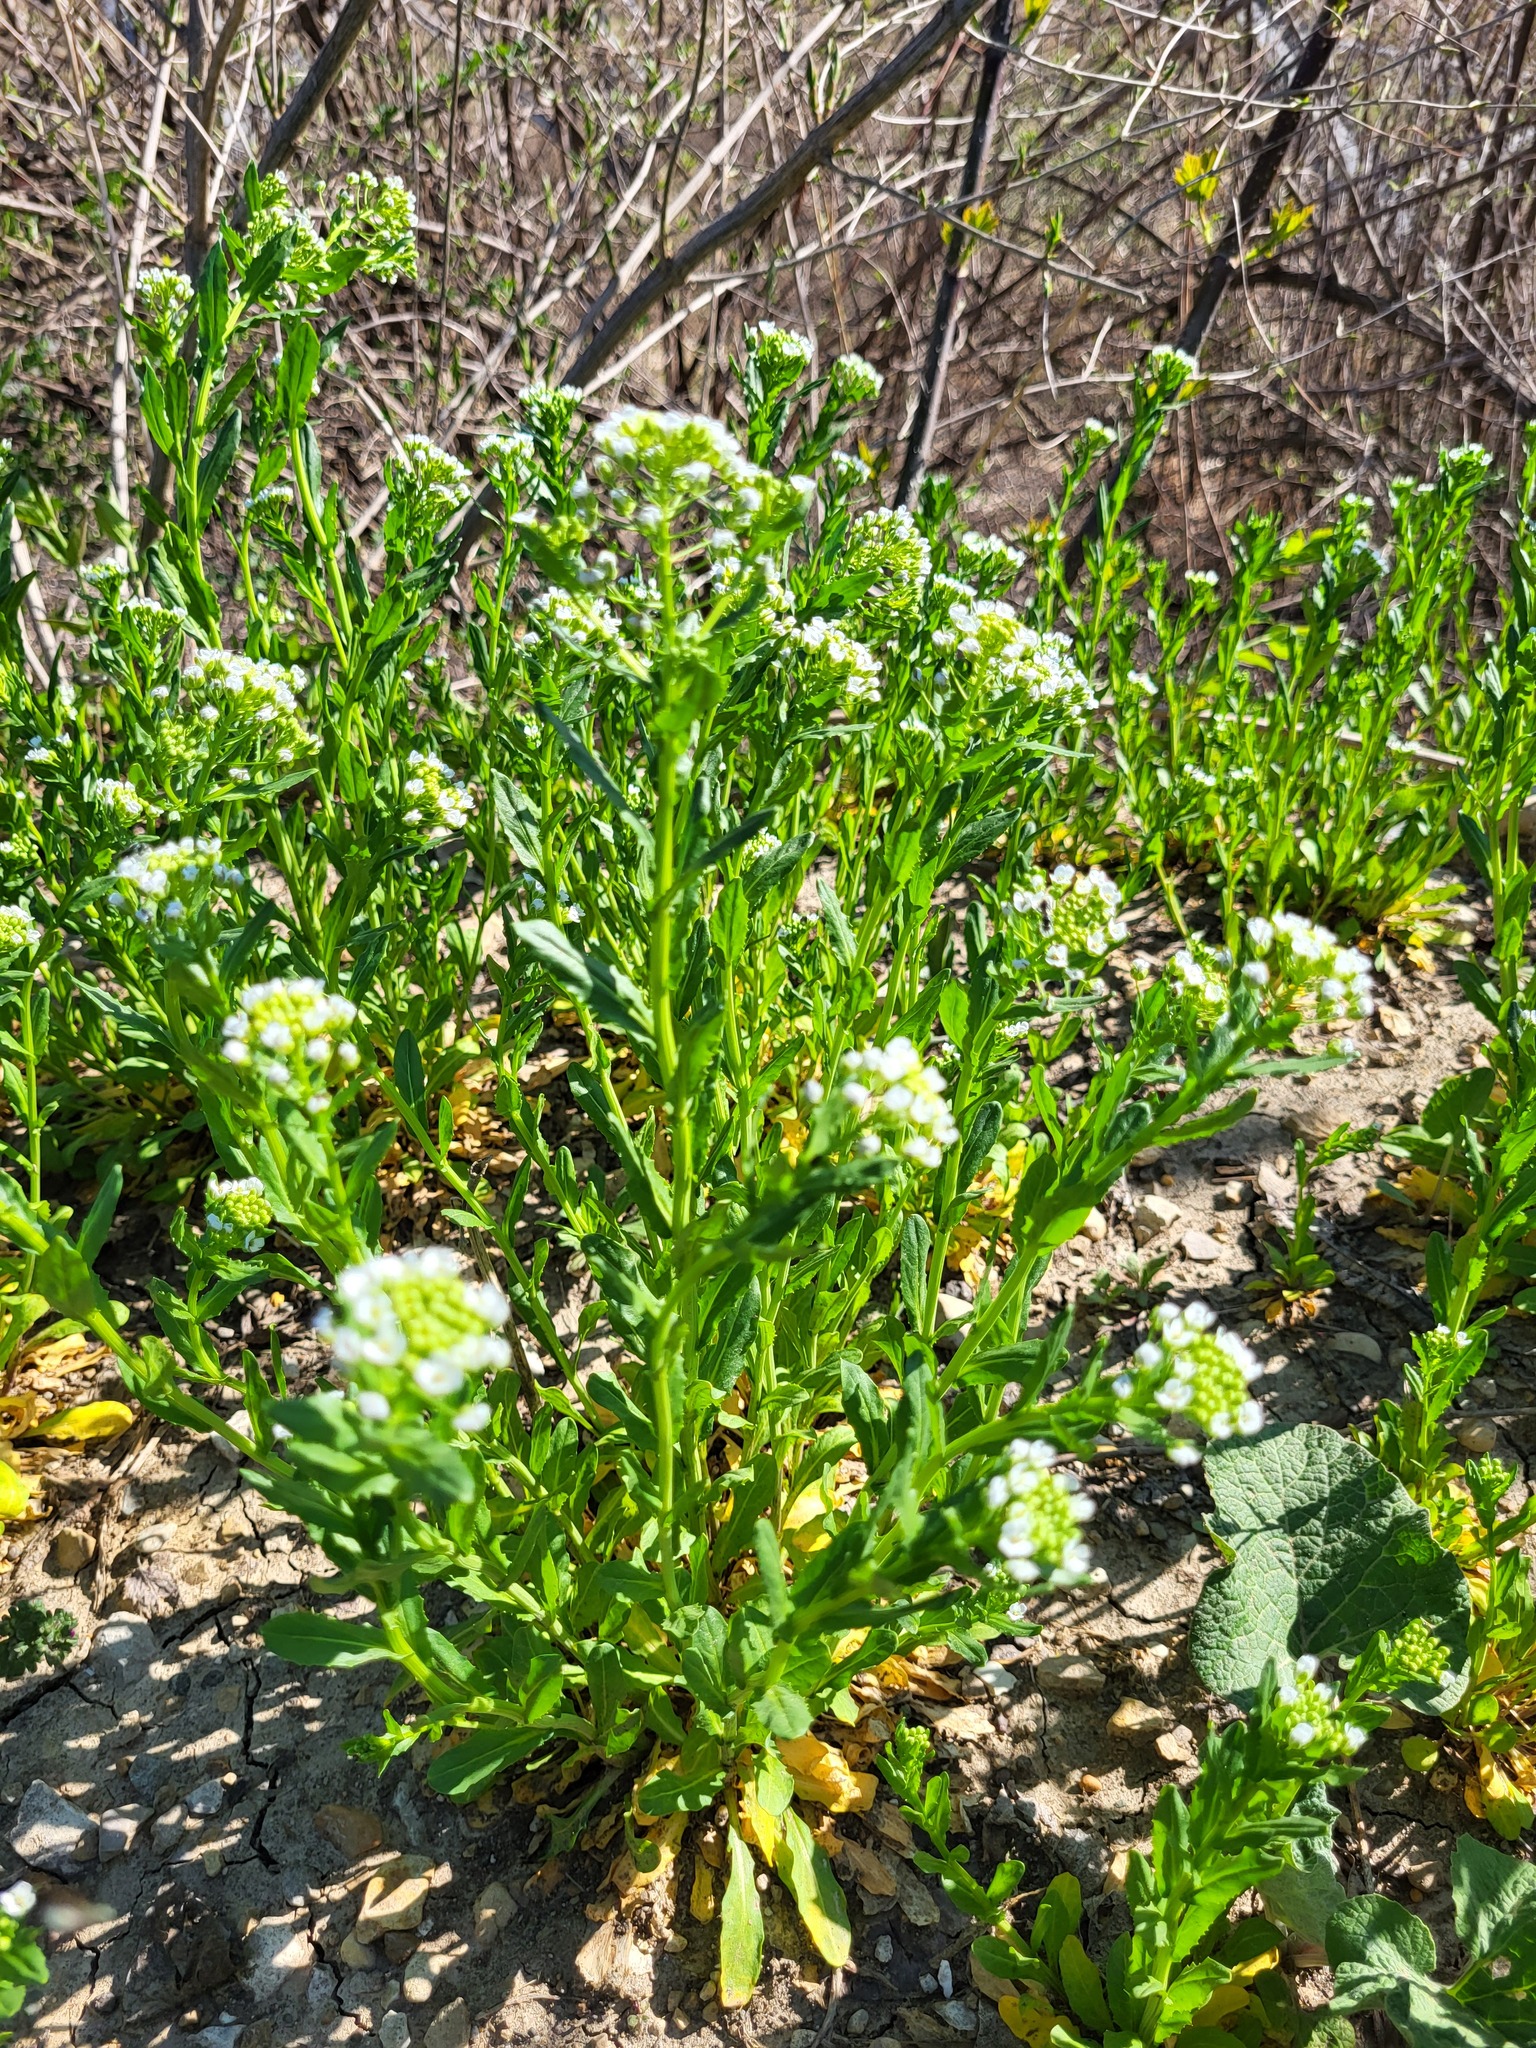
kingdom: Plantae
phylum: Tracheophyta
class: Magnoliopsida
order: Brassicales
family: Brassicaceae
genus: Thlaspi
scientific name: Thlaspi arvense
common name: Field pennycress
